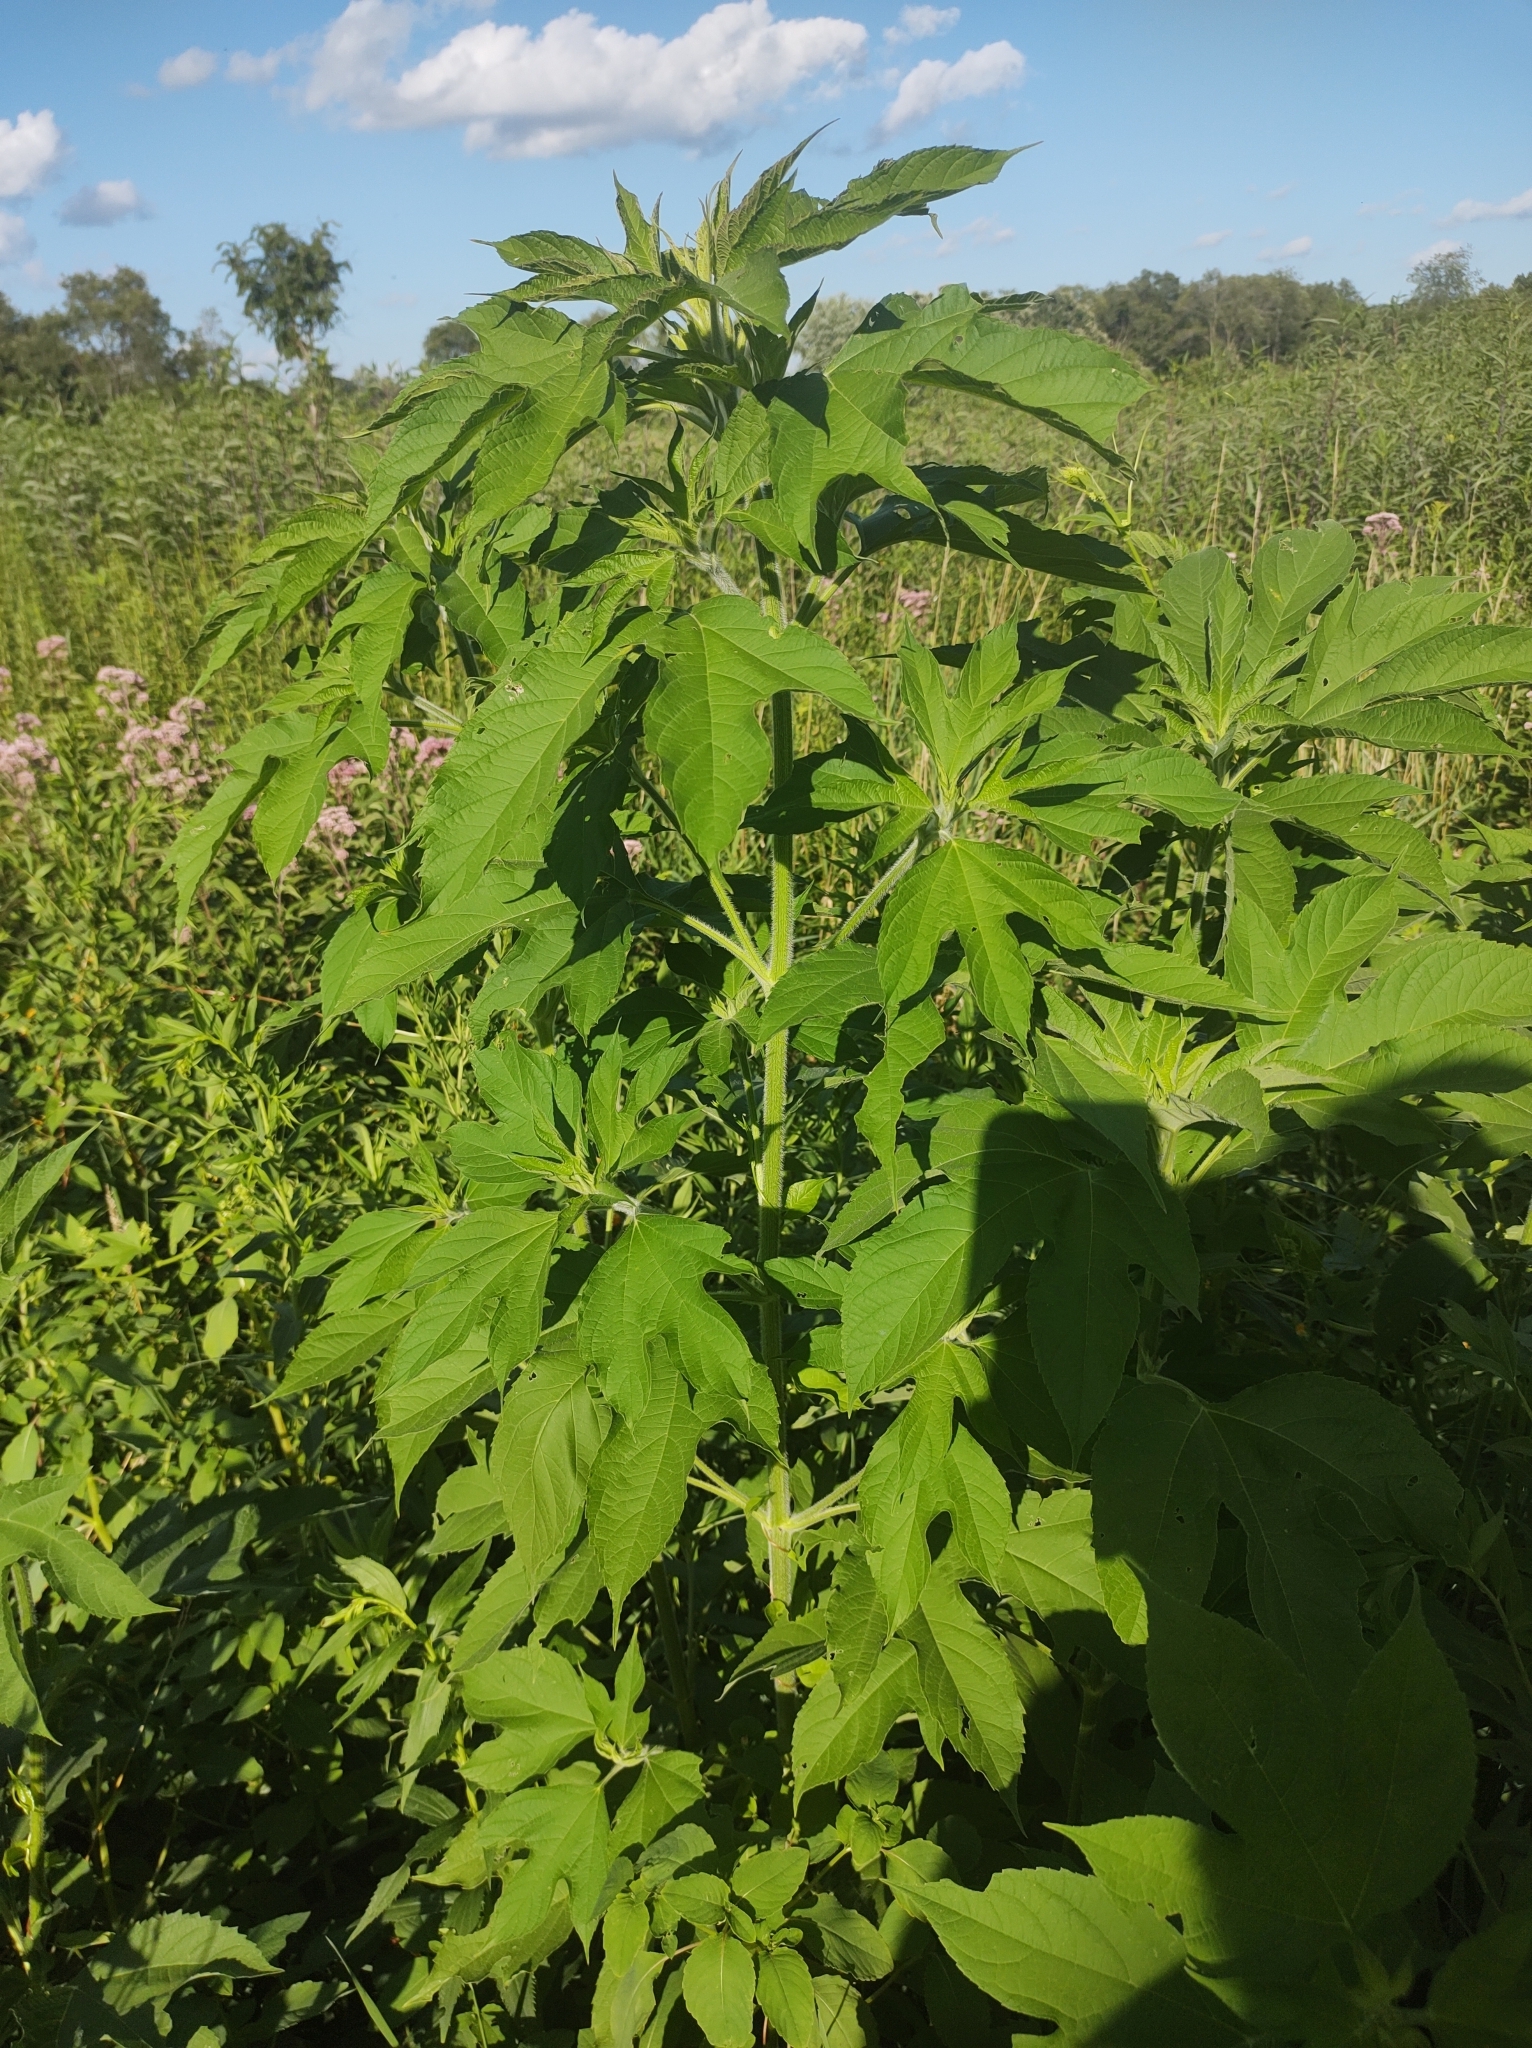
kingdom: Plantae
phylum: Tracheophyta
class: Magnoliopsida
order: Asterales
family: Asteraceae
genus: Ambrosia
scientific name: Ambrosia trifida
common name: Giant ragweed
